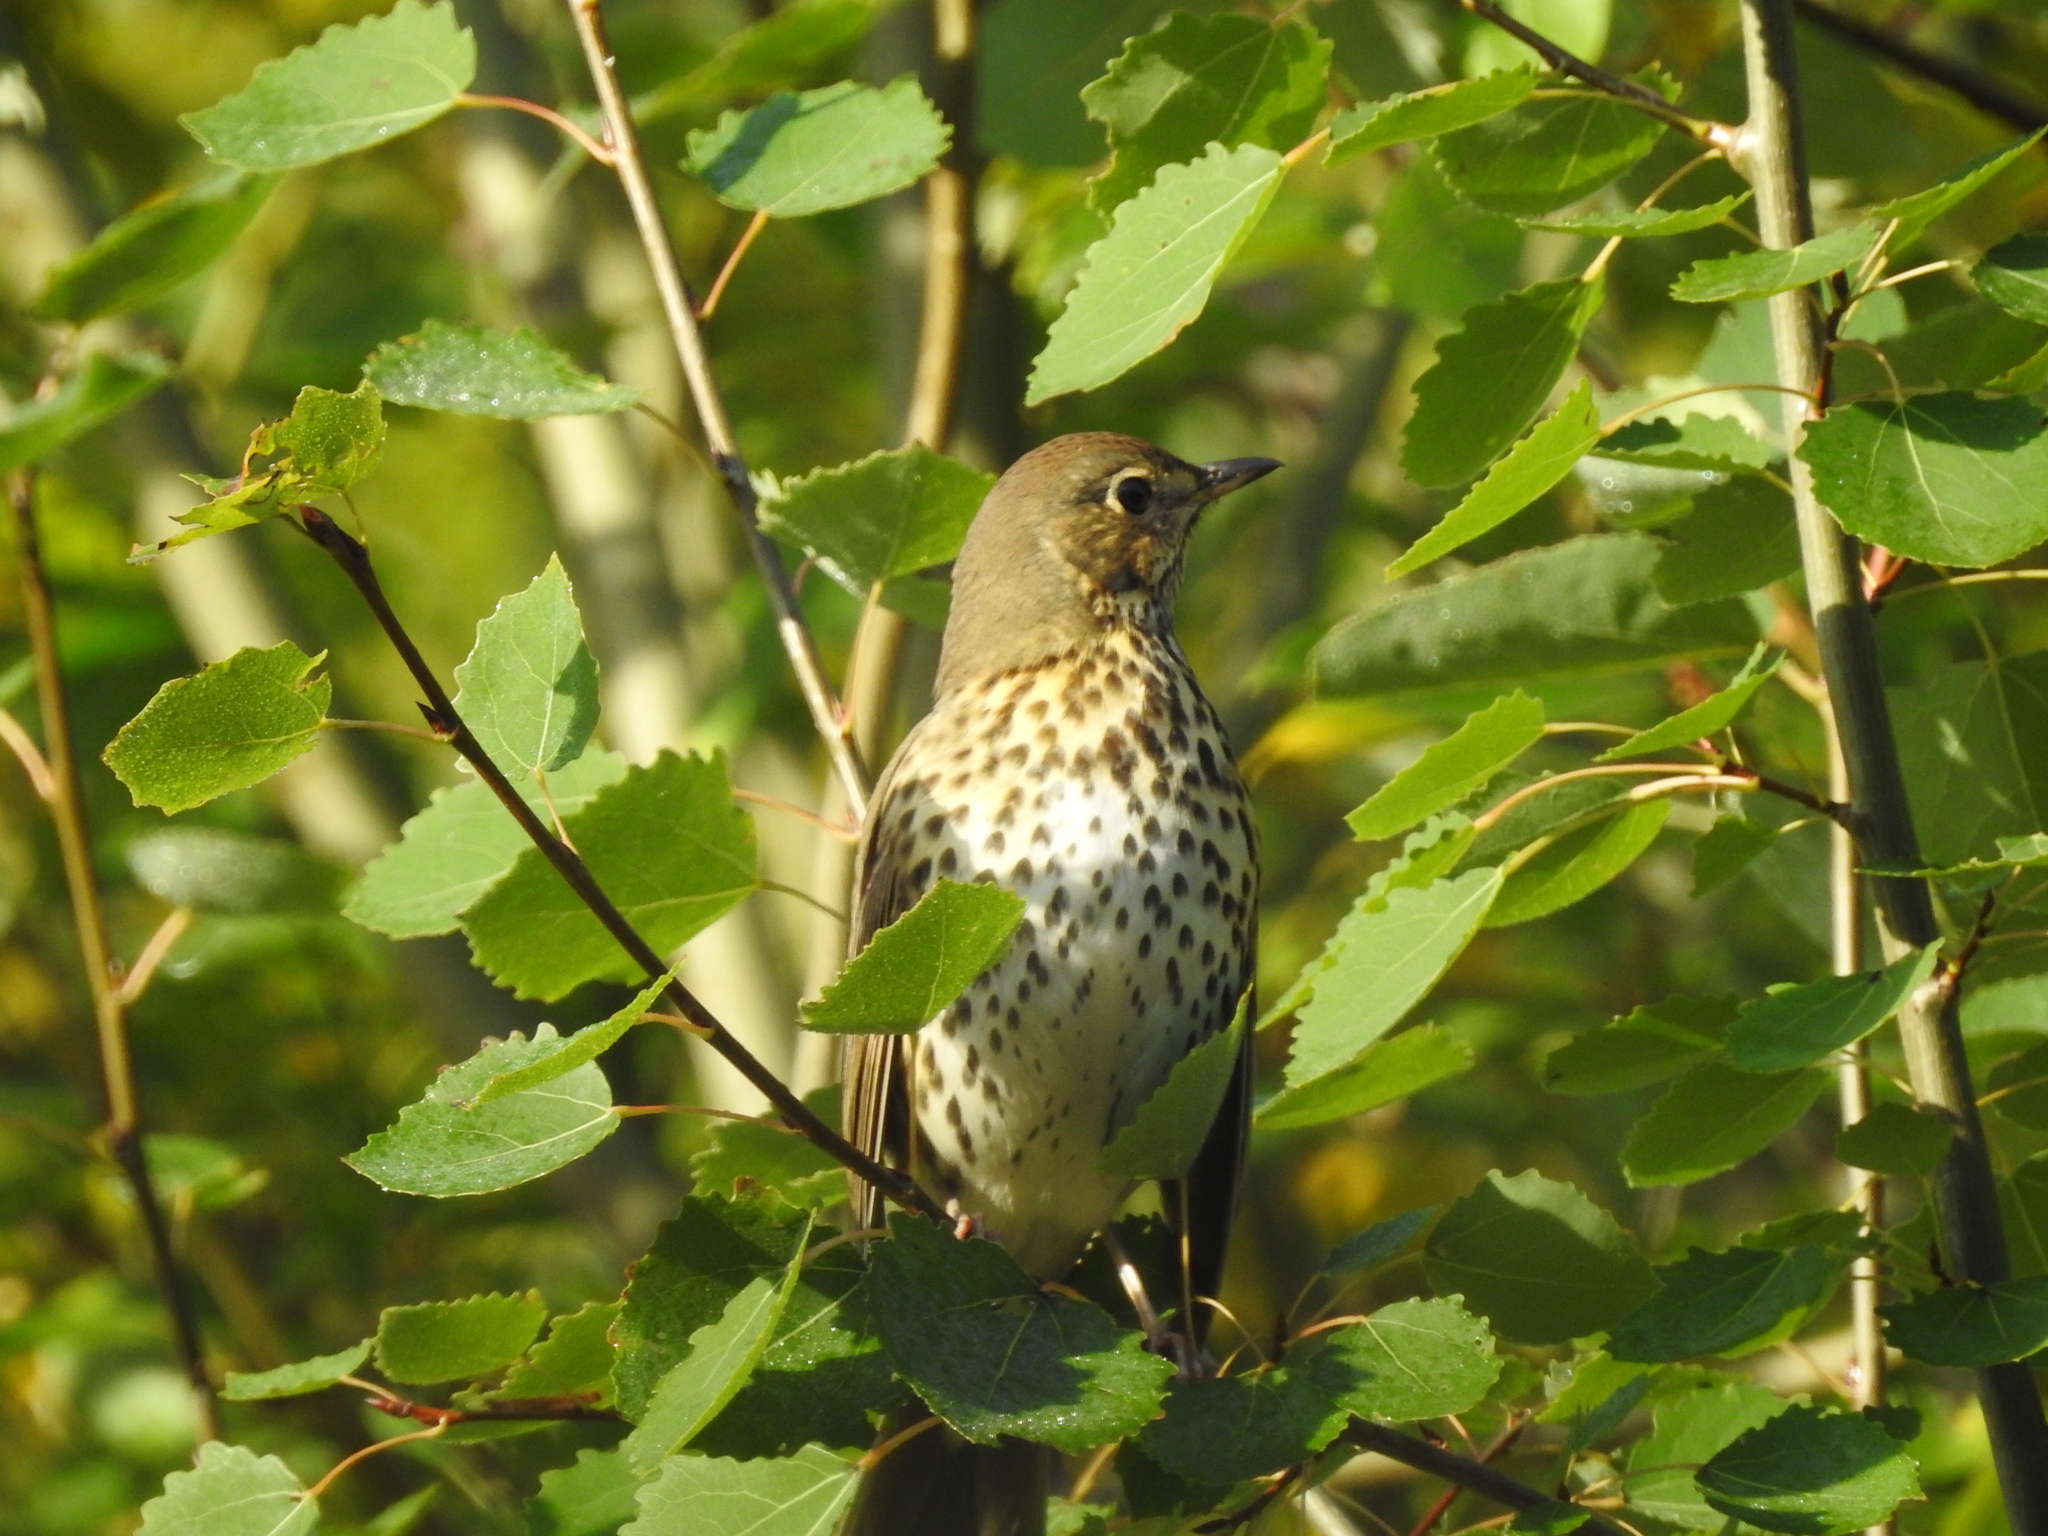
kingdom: Animalia
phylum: Chordata
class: Aves
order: Passeriformes
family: Turdidae
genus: Turdus
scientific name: Turdus philomelos
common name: Song thrush
